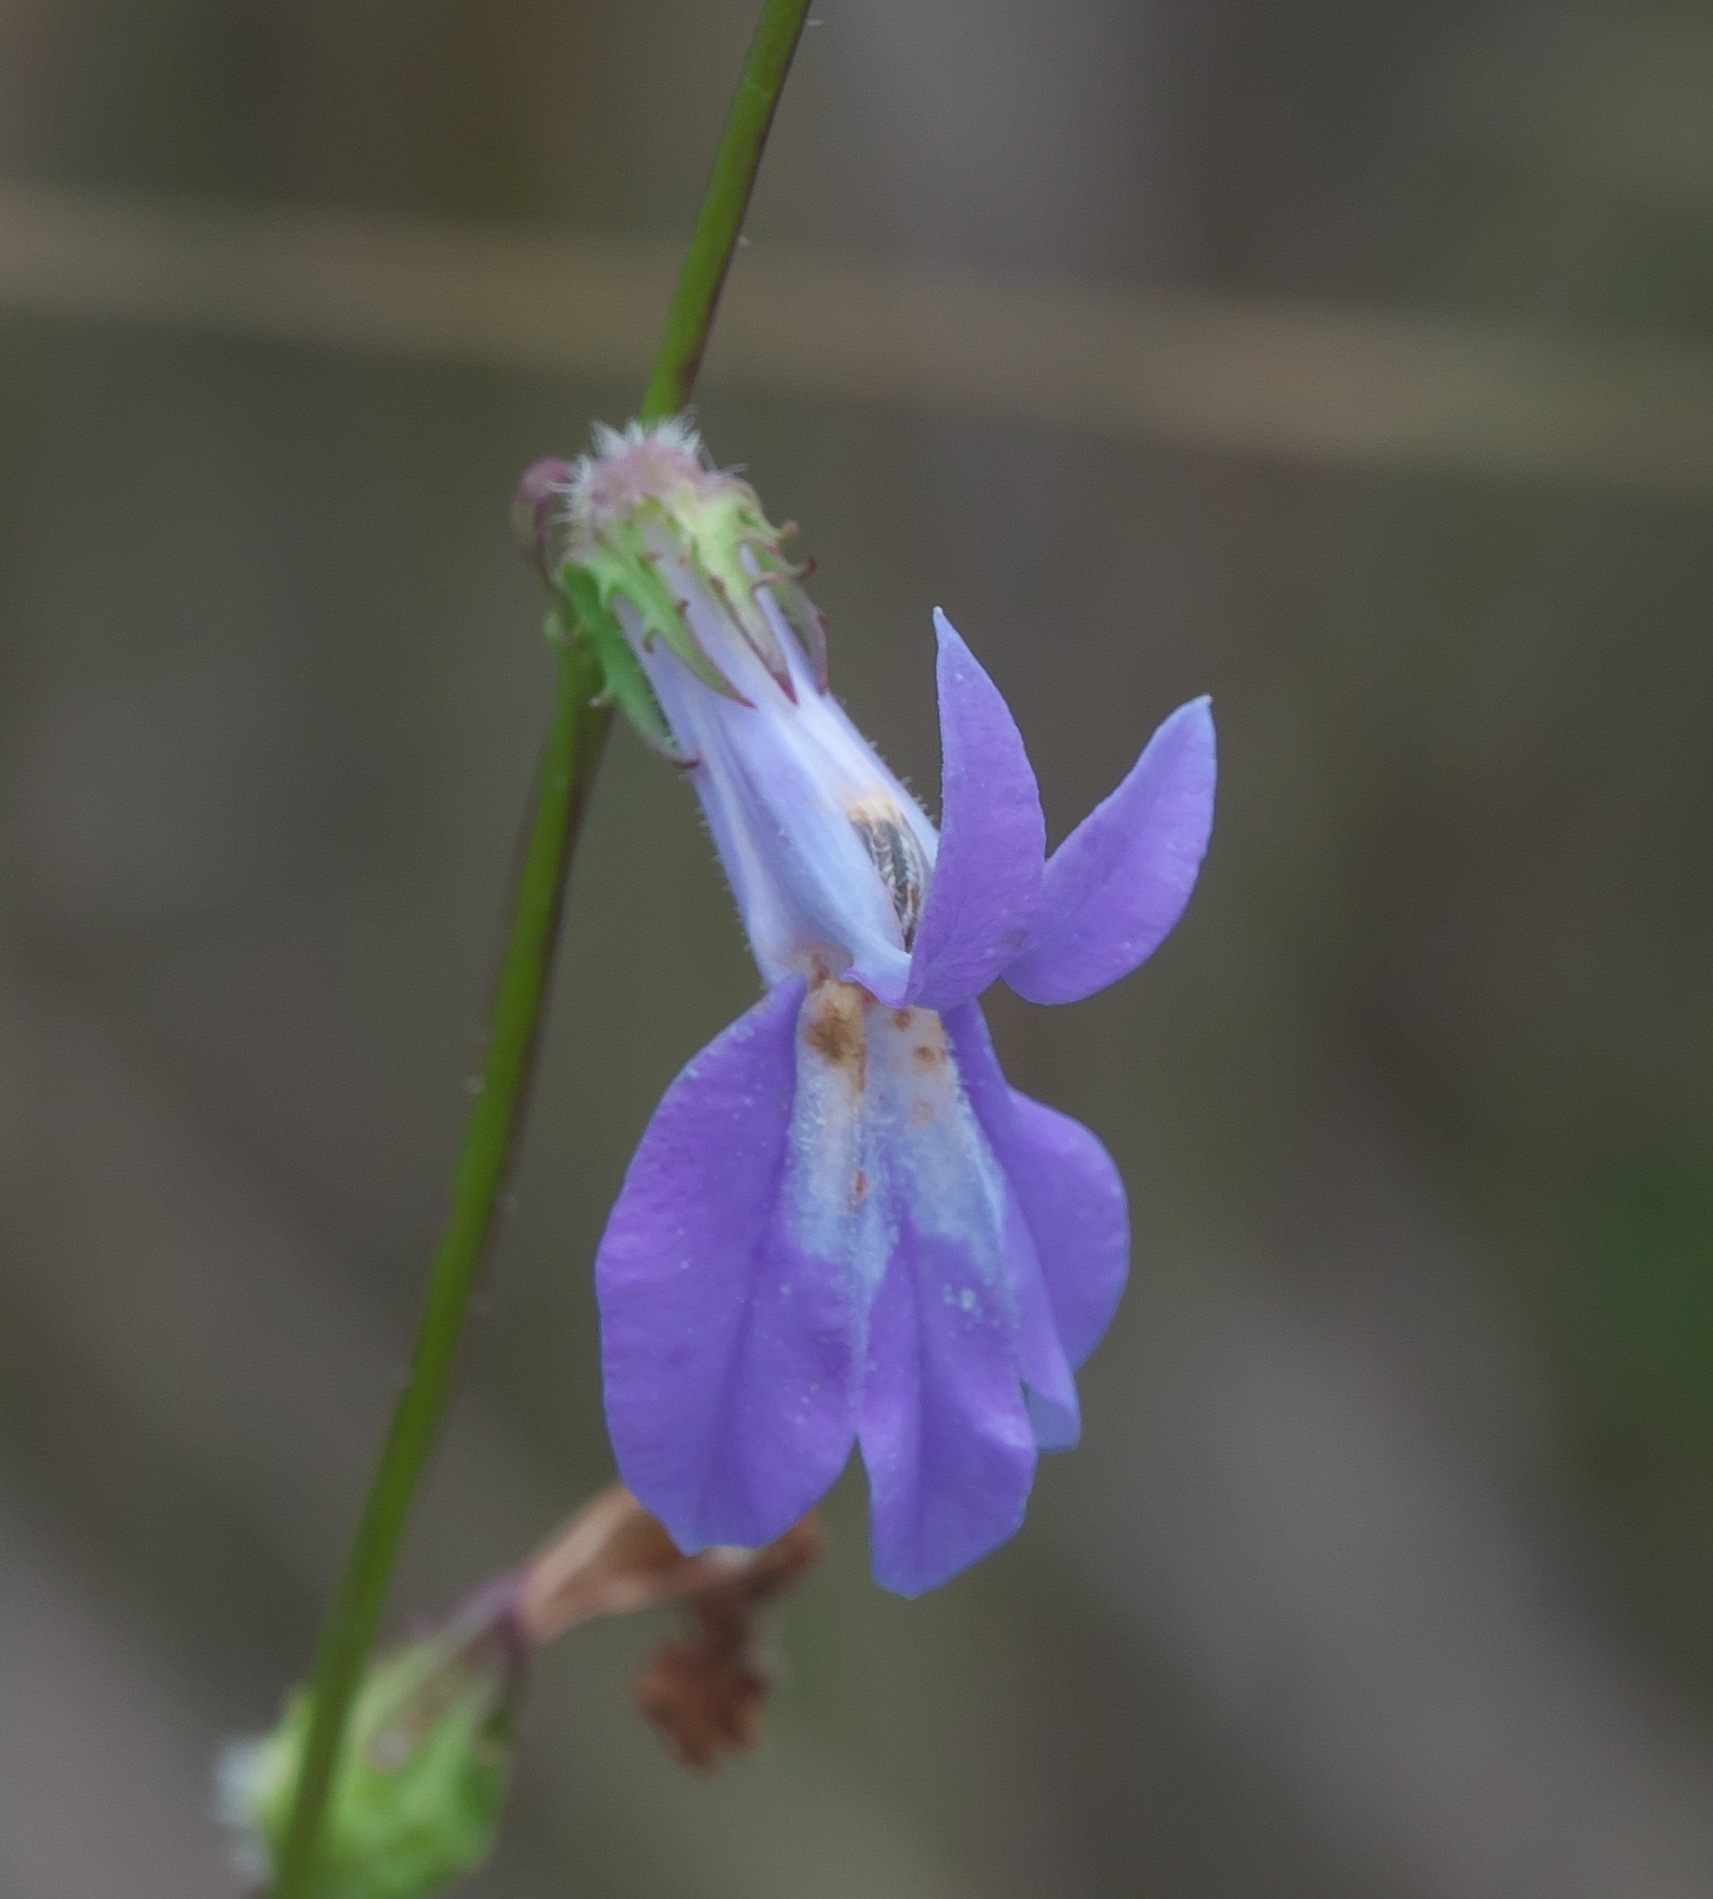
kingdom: Plantae
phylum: Tracheophyta
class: Magnoliopsida
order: Asterales
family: Campanulaceae
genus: Lobelia
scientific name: Lobelia glandulosa
